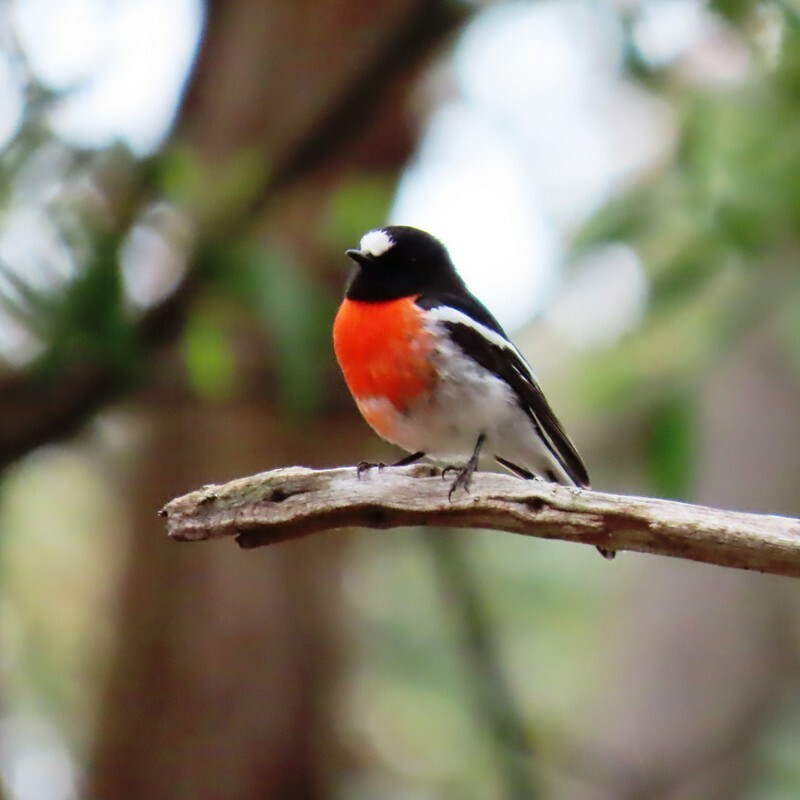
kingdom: Animalia
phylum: Chordata
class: Aves
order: Passeriformes
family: Petroicidae
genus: Petroica
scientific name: Petroica boodang
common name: Scarlet robin
